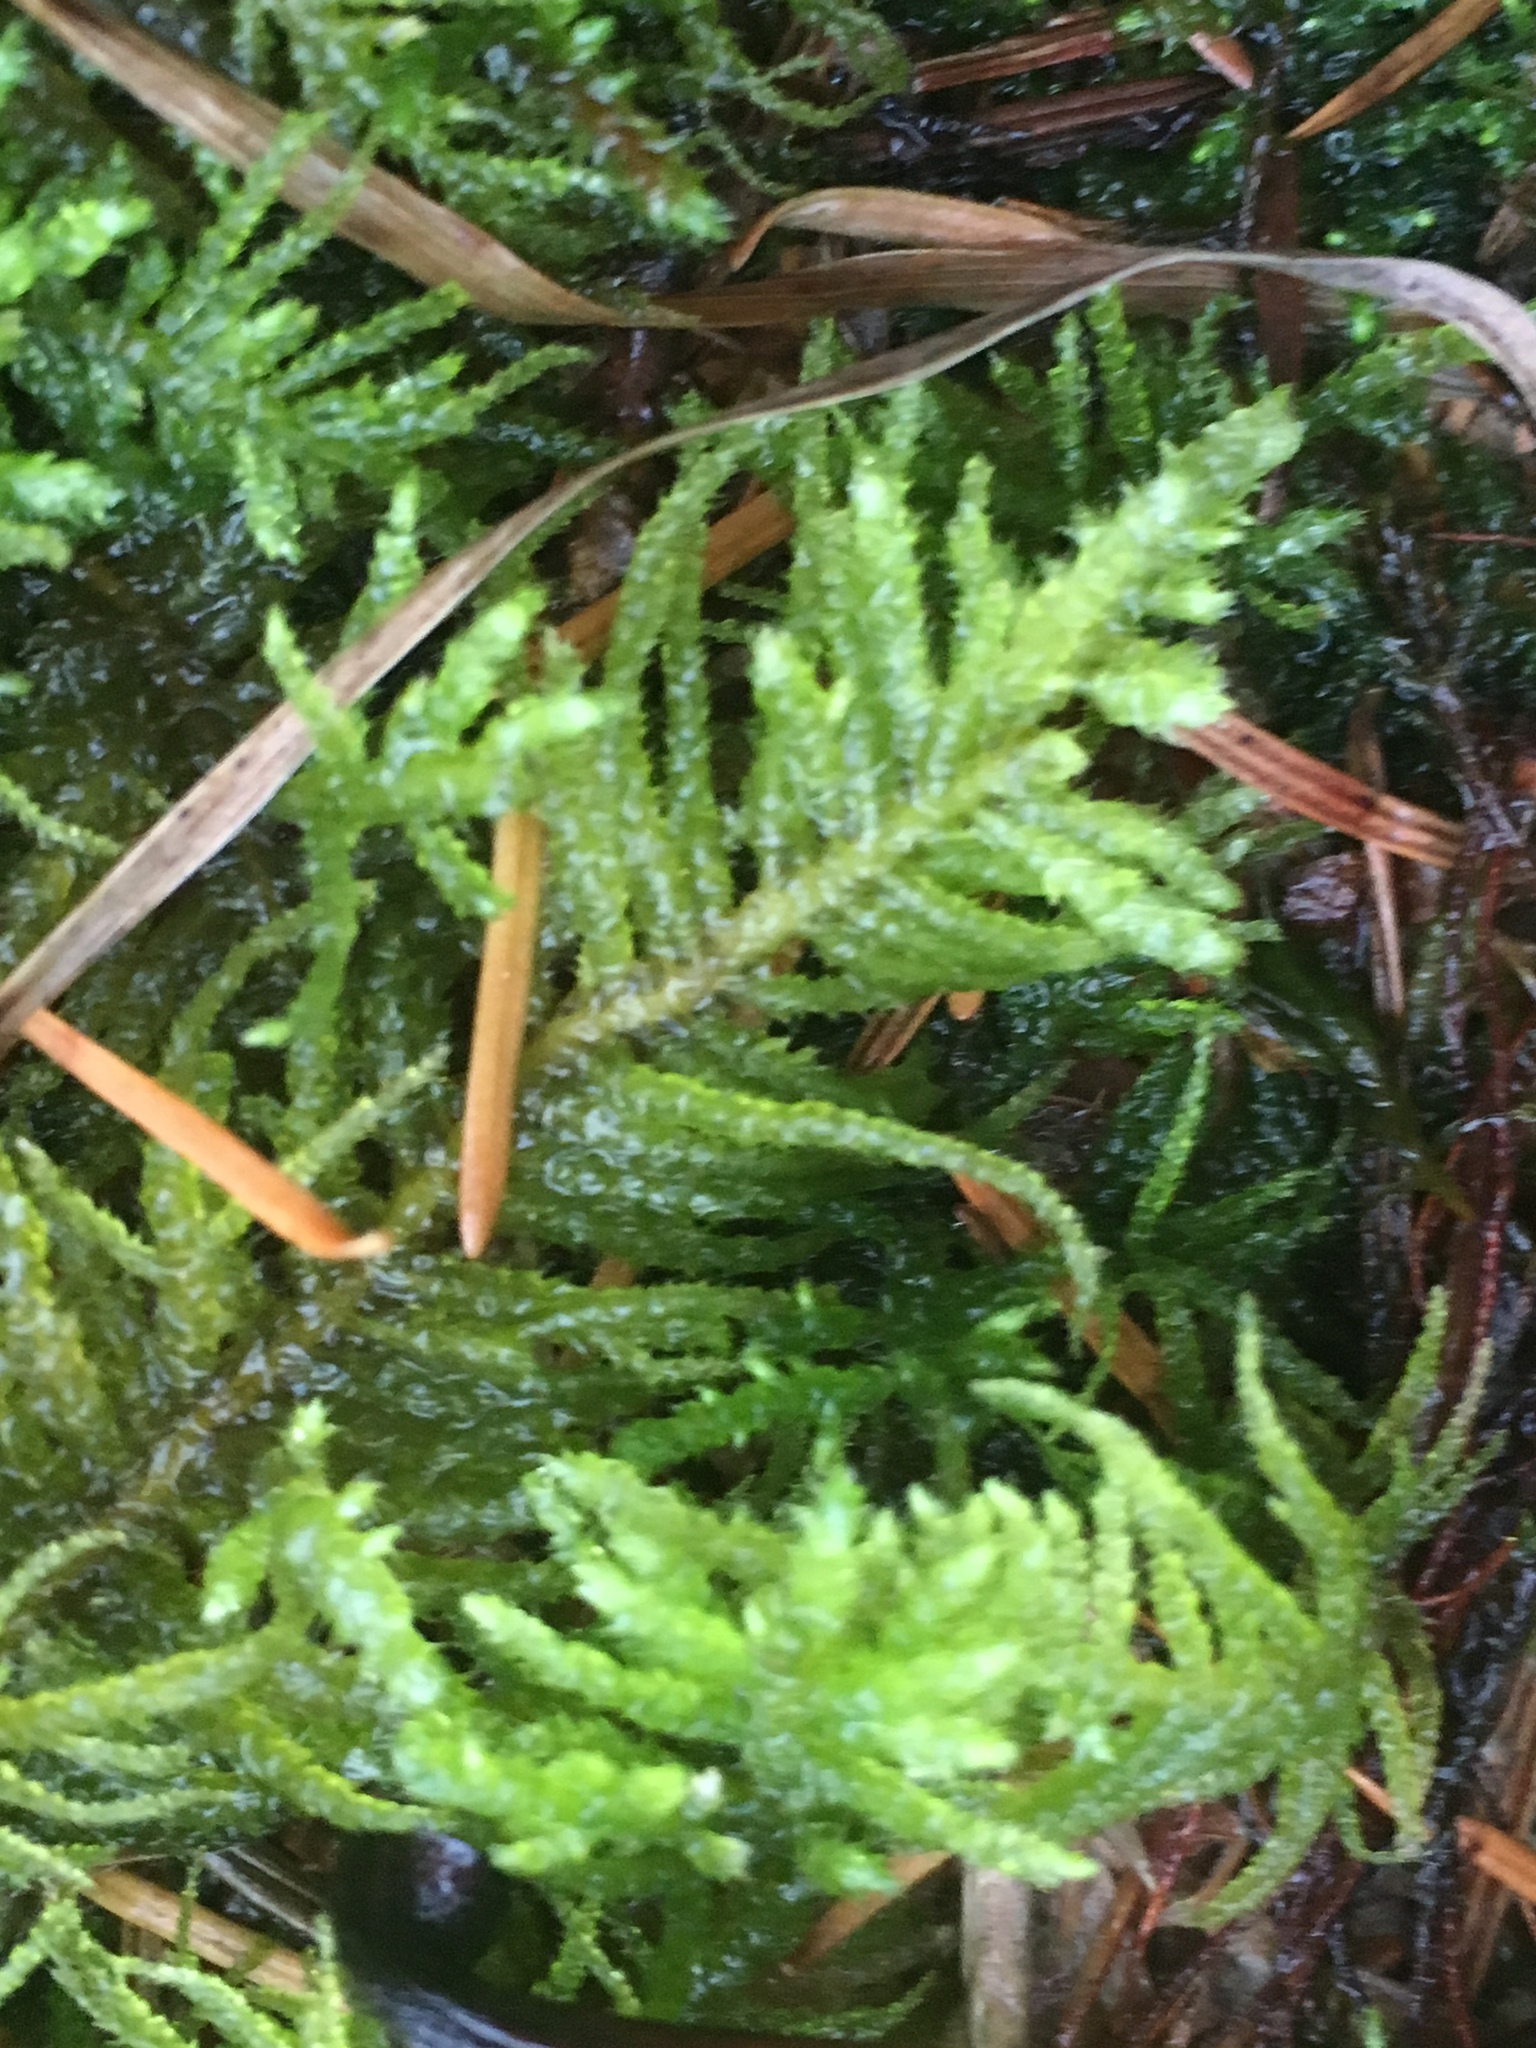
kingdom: Plantae
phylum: Bryophyta
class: Bryopsida
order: Hypnales
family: Brachytheciaceae
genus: Kindbergia
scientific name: Kindbergia oregana
